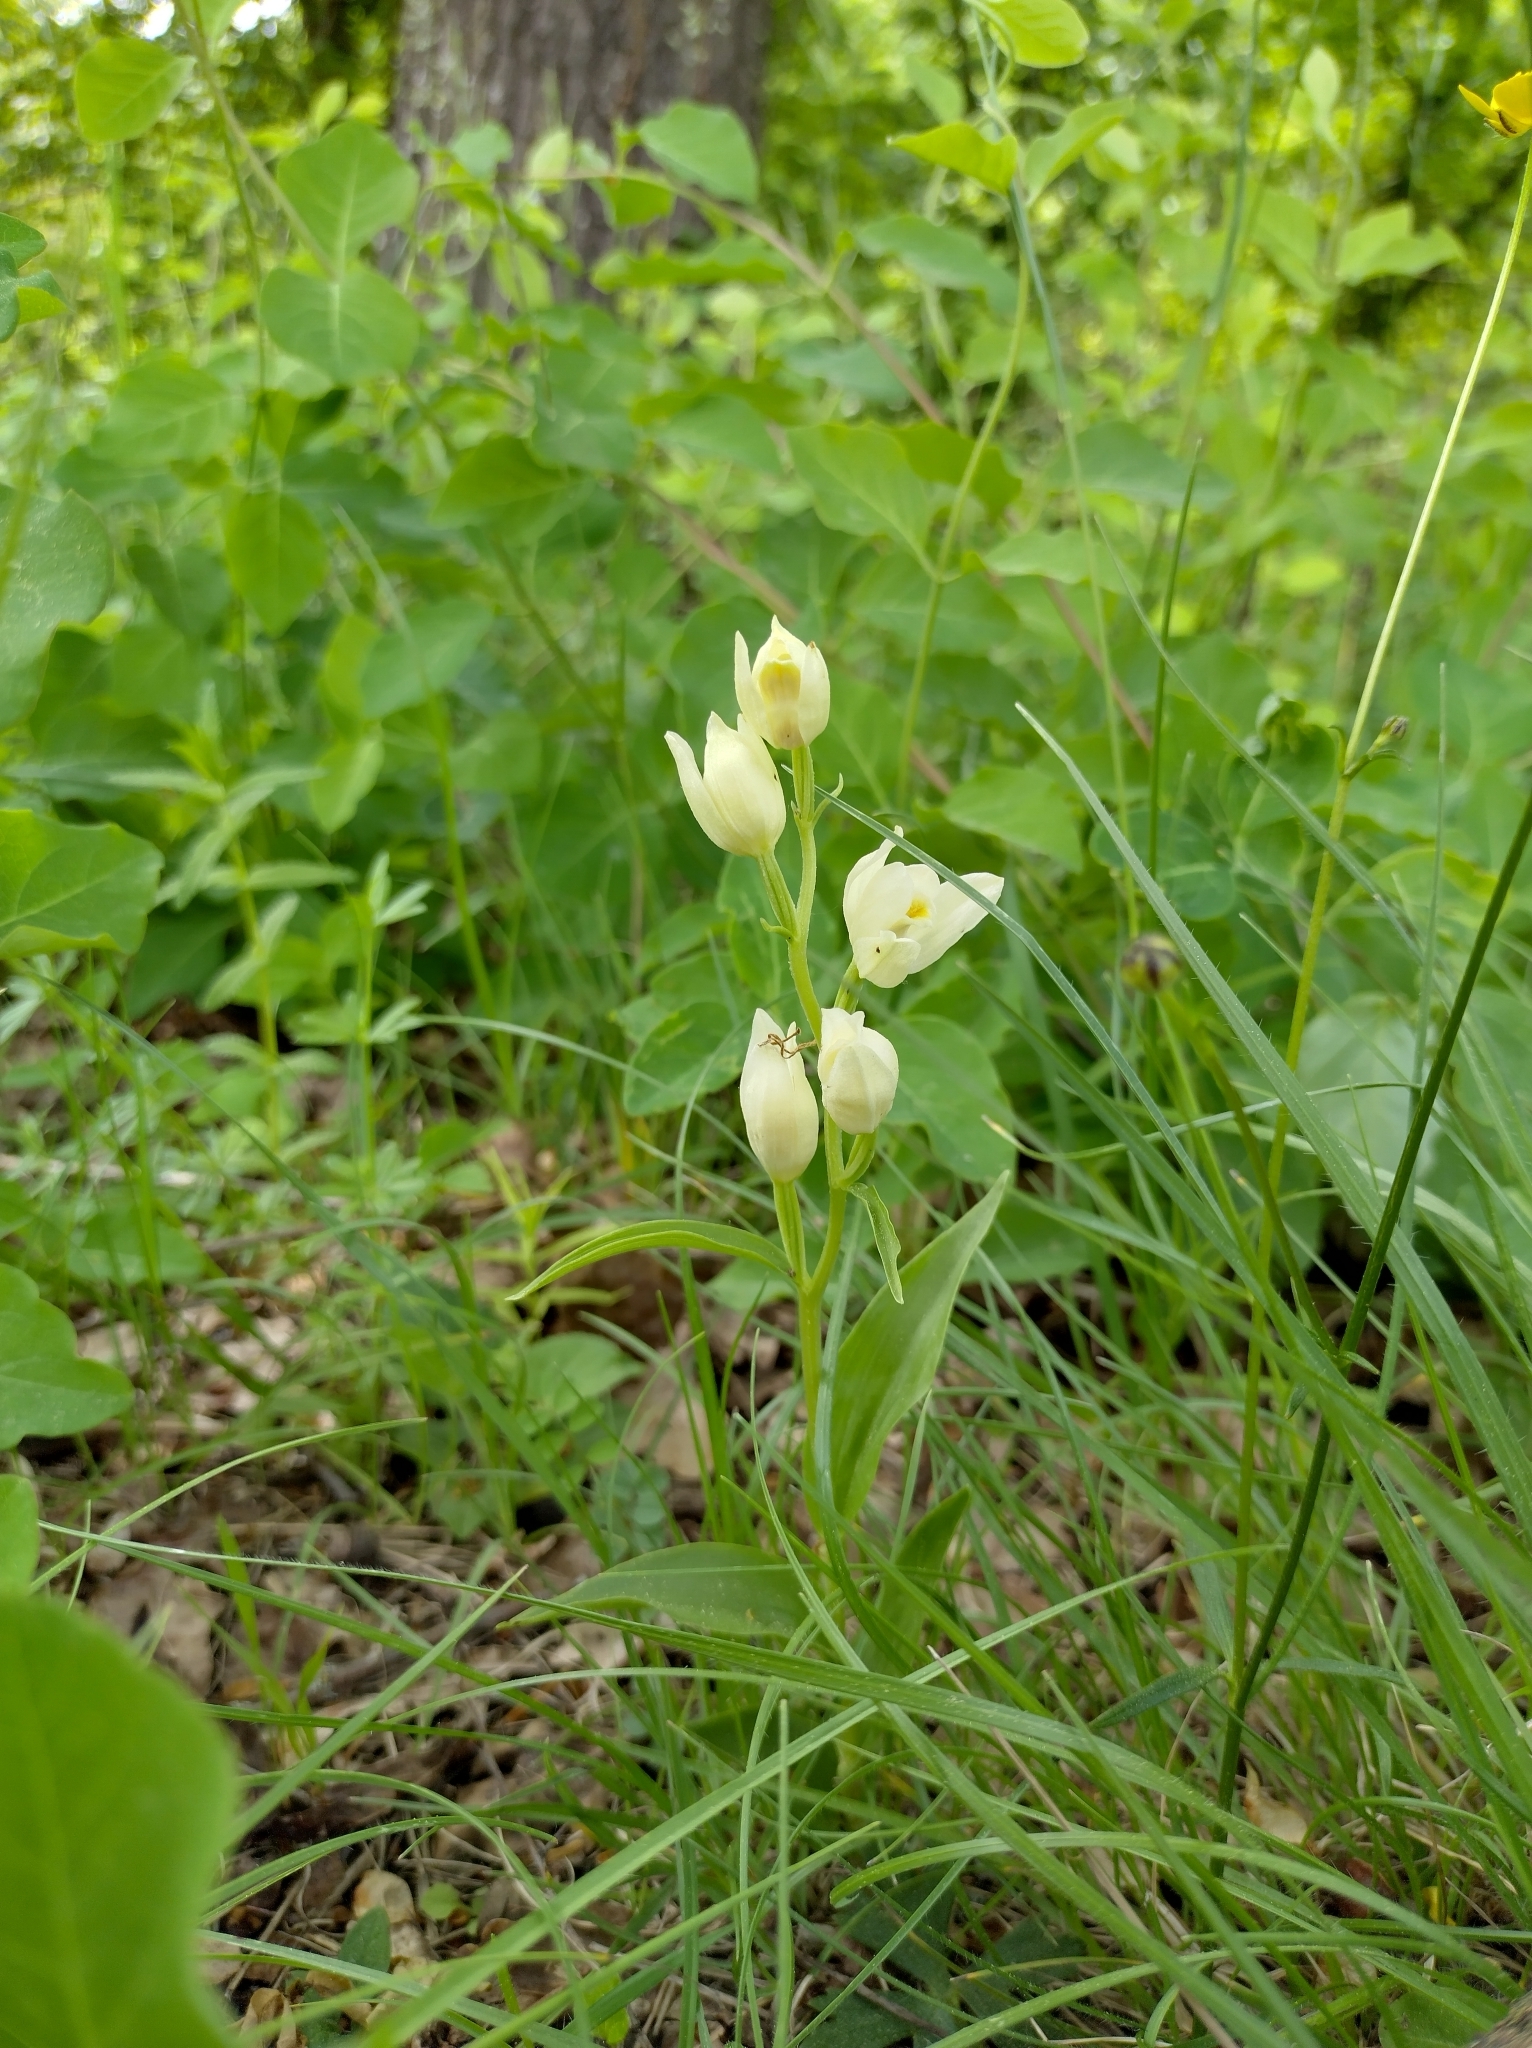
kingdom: Plantae
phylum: Tracheophyta
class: Liliopsida
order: Asparagales
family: Orchidaceae
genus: Cephalanthera
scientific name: Cephalanthera damasonium
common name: White helleborine
